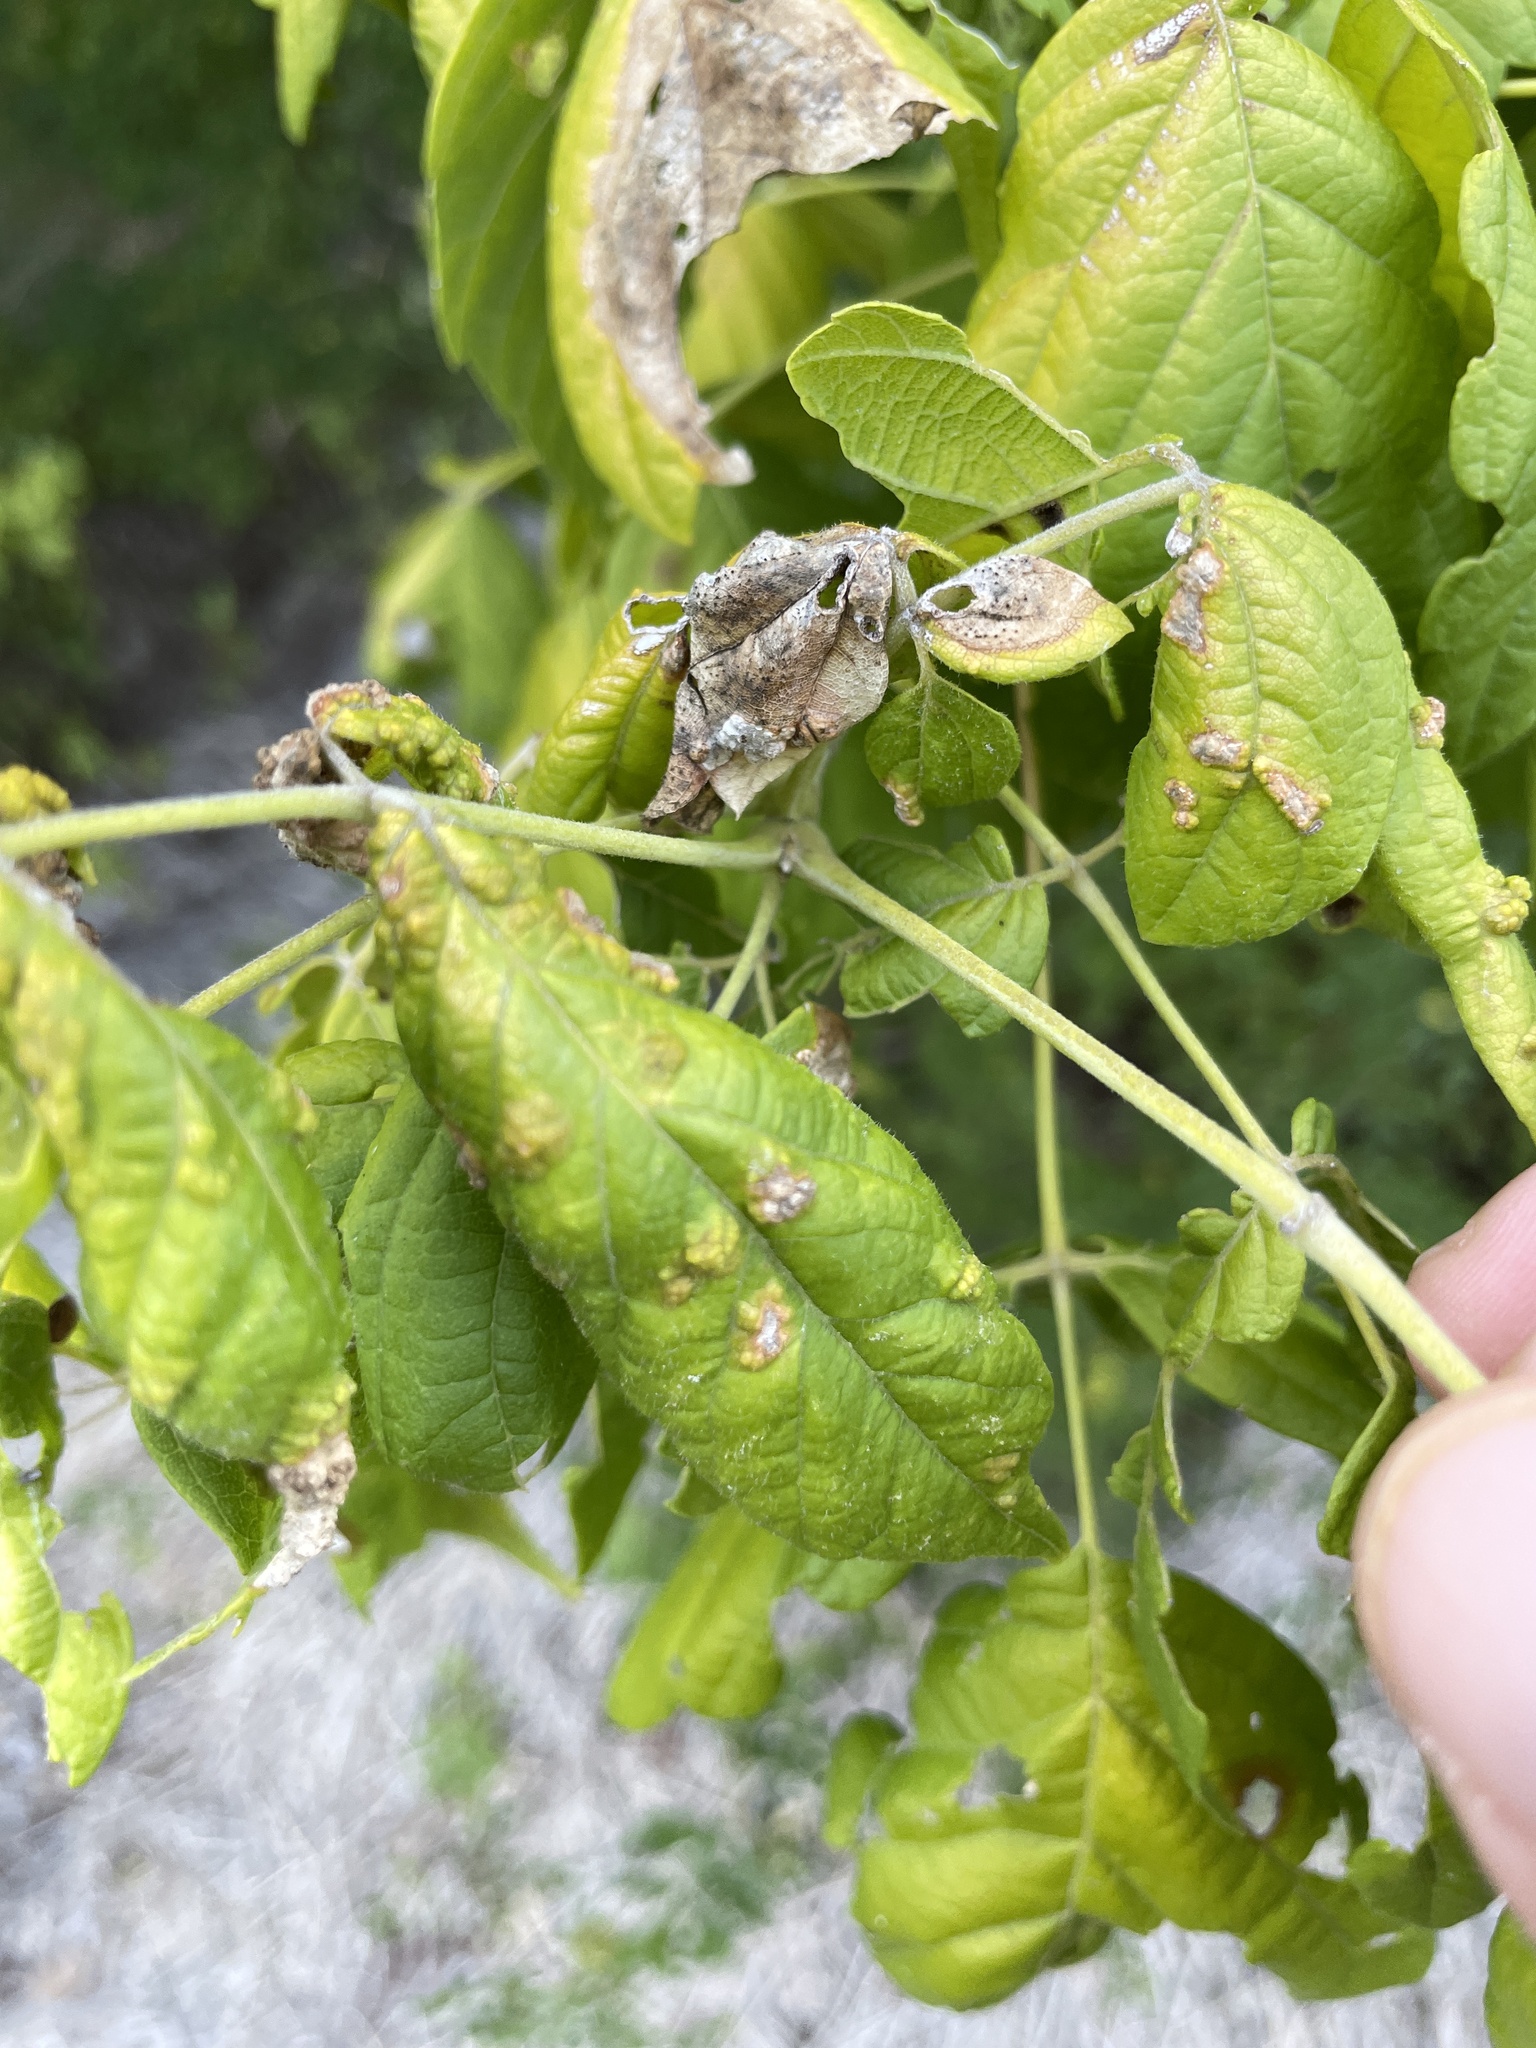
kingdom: Animalia
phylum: Arthropoda
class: Arachnida
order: Trombidiformes
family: Eriophyidae
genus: Aceria
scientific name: Aceria
